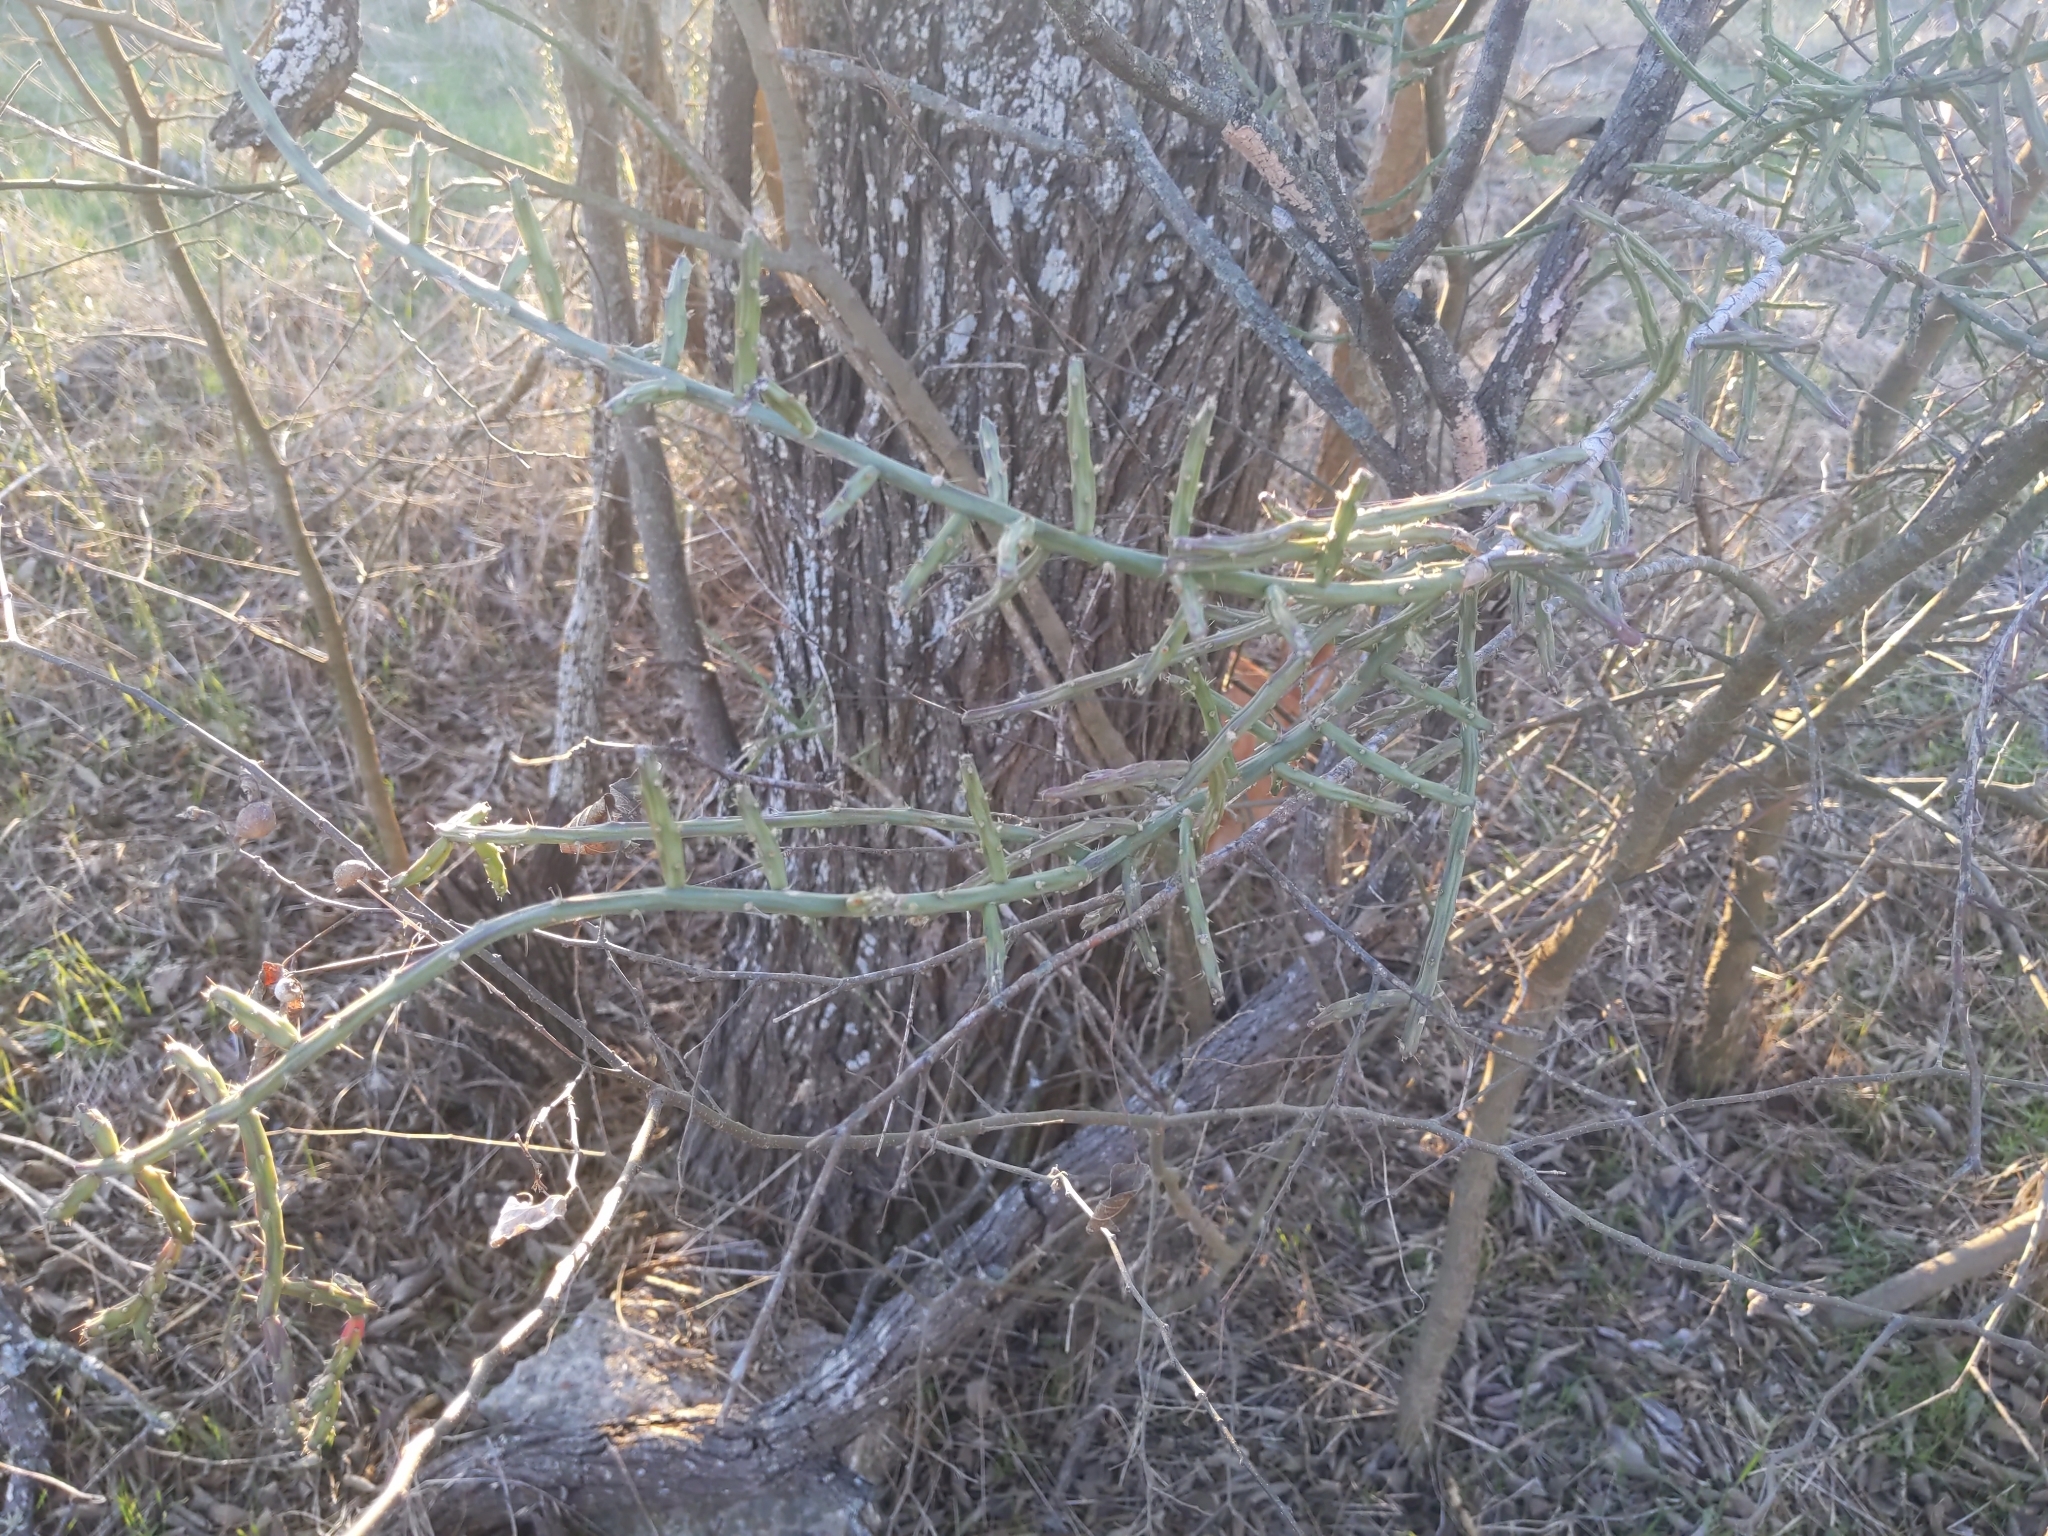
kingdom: Plantae
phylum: Tracheophyta
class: Magnoliopsida
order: Caryophyllales
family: Cactaceae
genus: Cylindropuntia
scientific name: Cylindropuntia leptocaulis
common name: Christmas cactus
